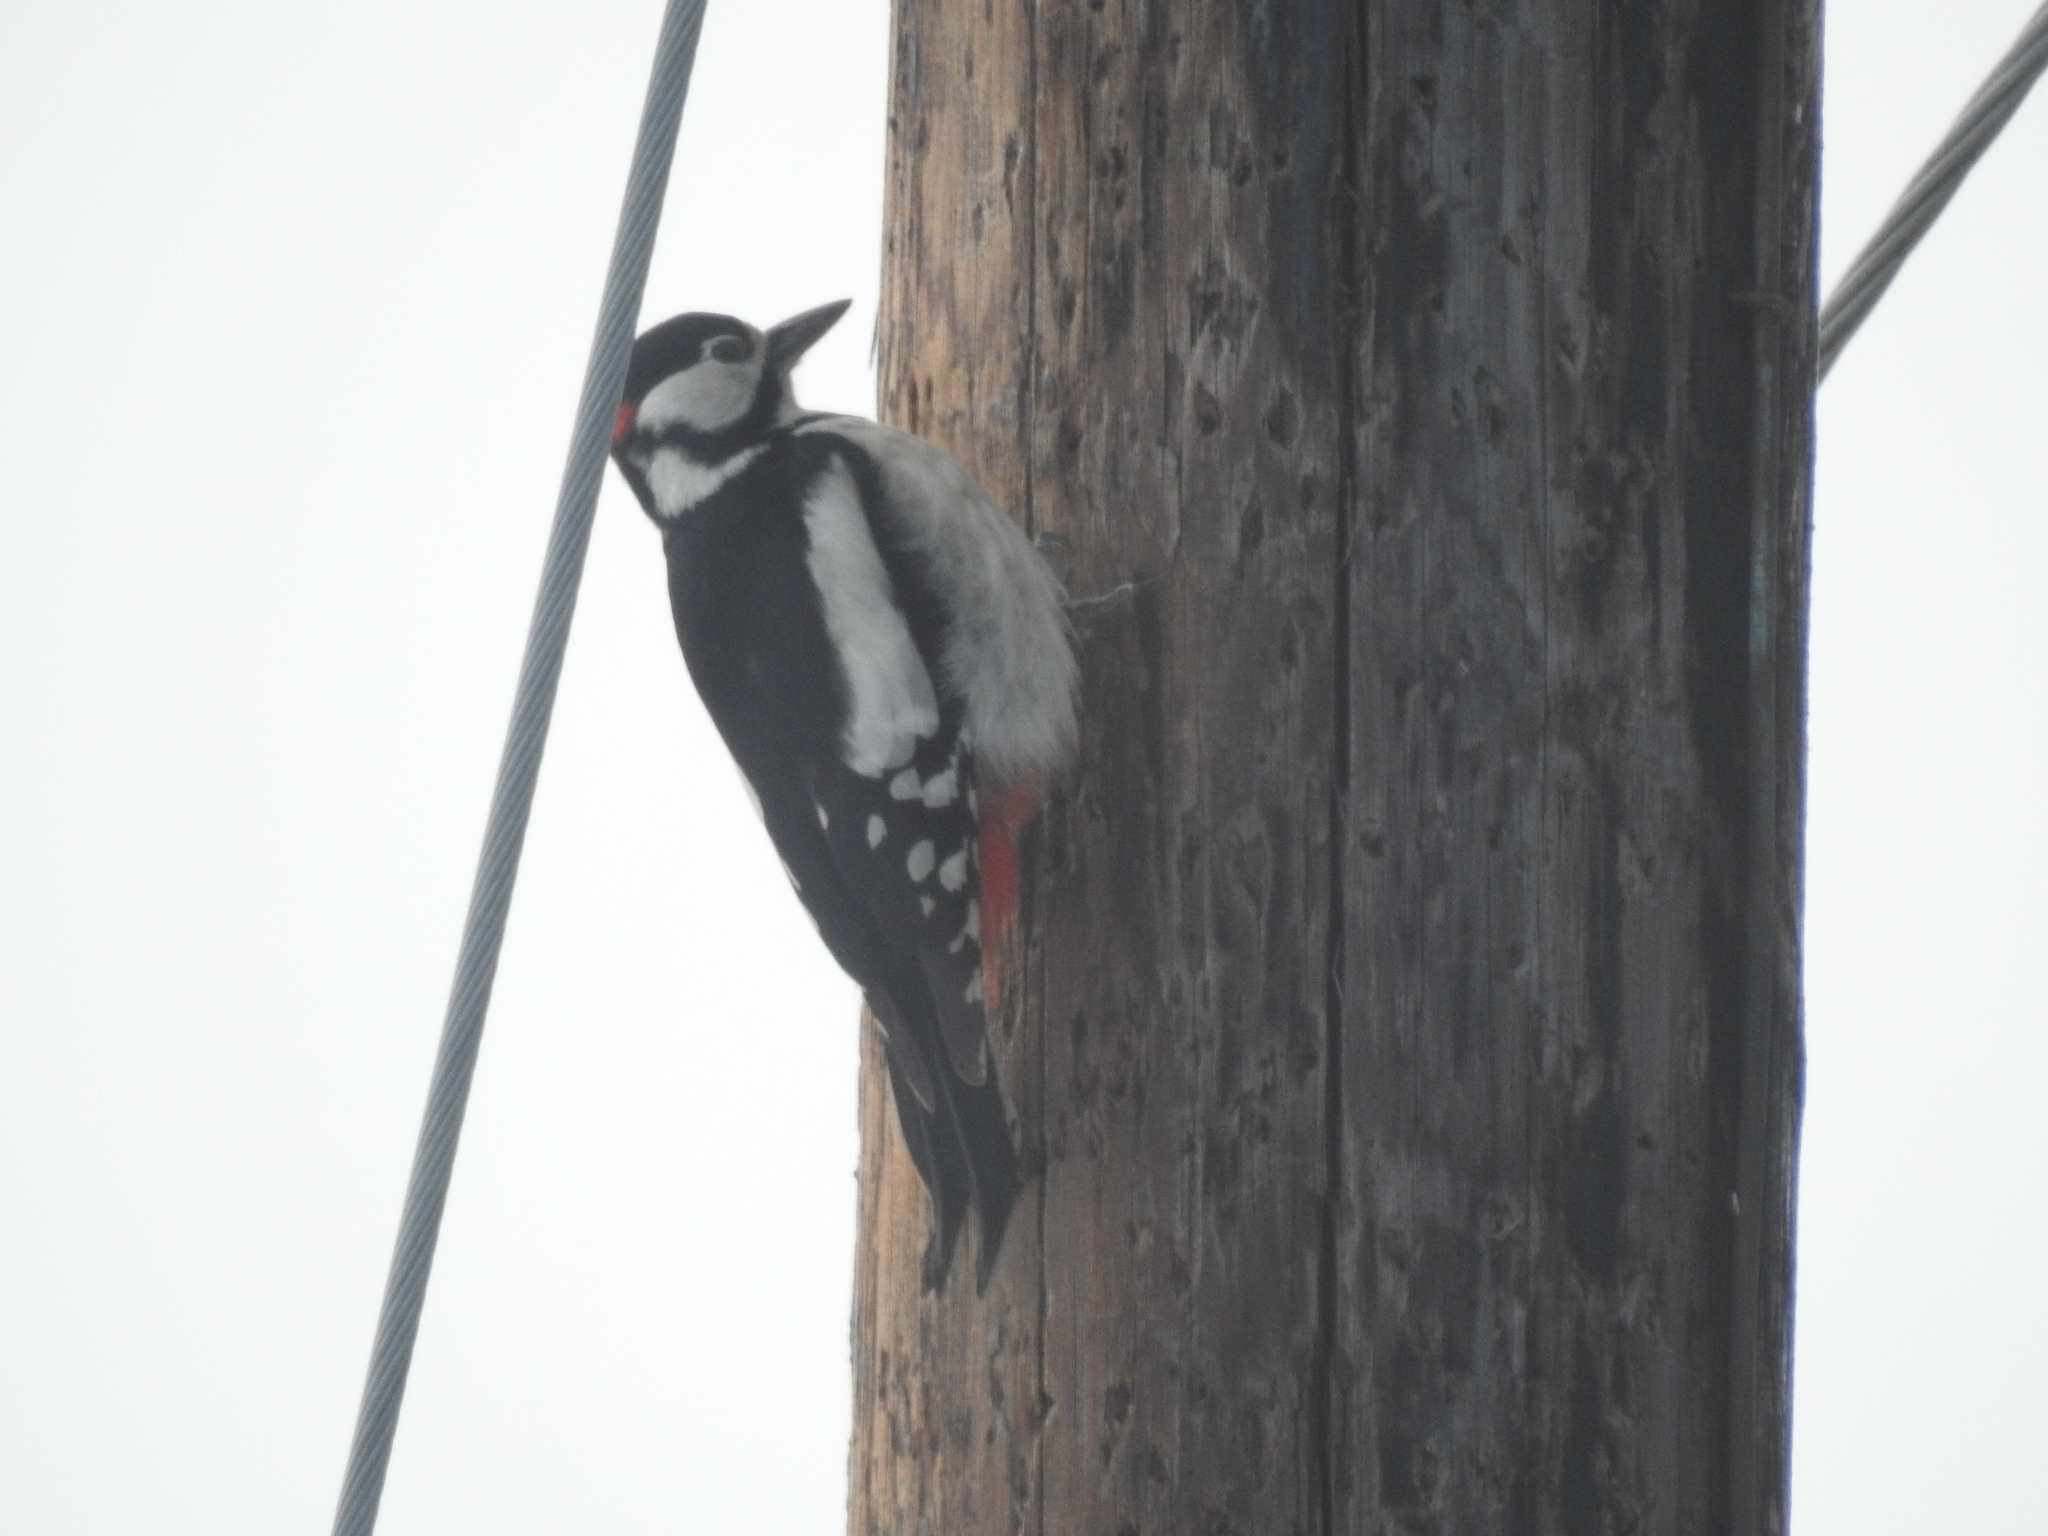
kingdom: Animalia
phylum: Chordata
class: Aves
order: Piciformes
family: Picidae
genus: Dendrocopos
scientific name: Dendrocopos major
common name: Great spotted woodpecker
